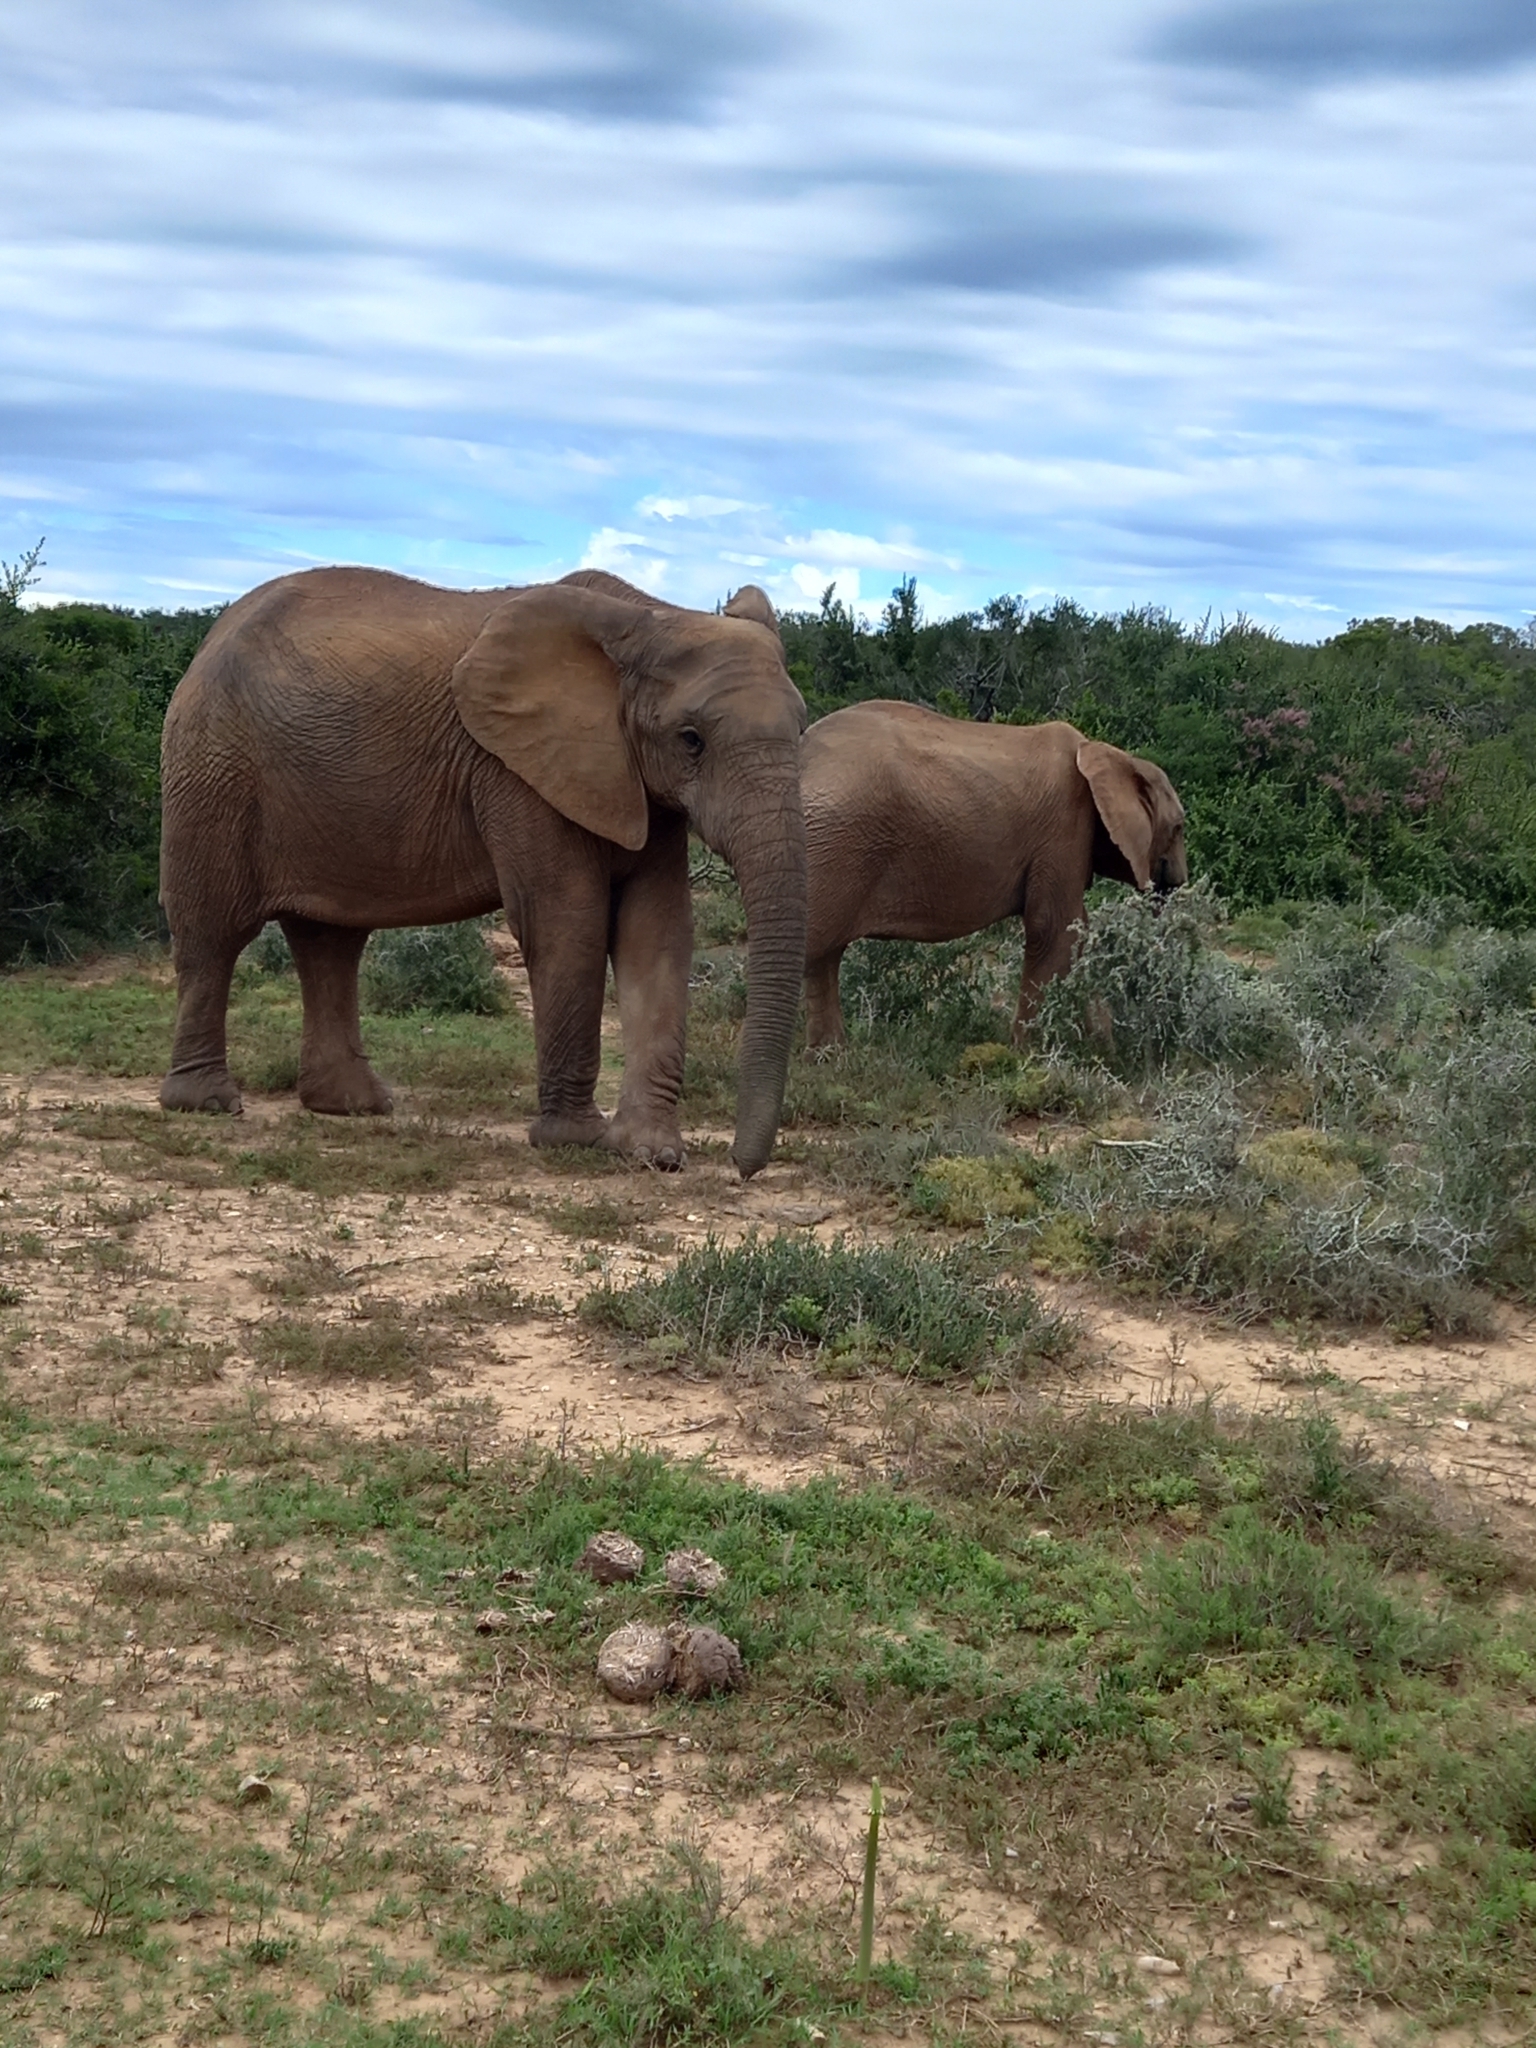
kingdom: Animalia
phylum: Chordata
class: Mammalia
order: Proboscidea
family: Elephantidae
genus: Loxodonta
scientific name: Loxodonta africana
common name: African elephant
